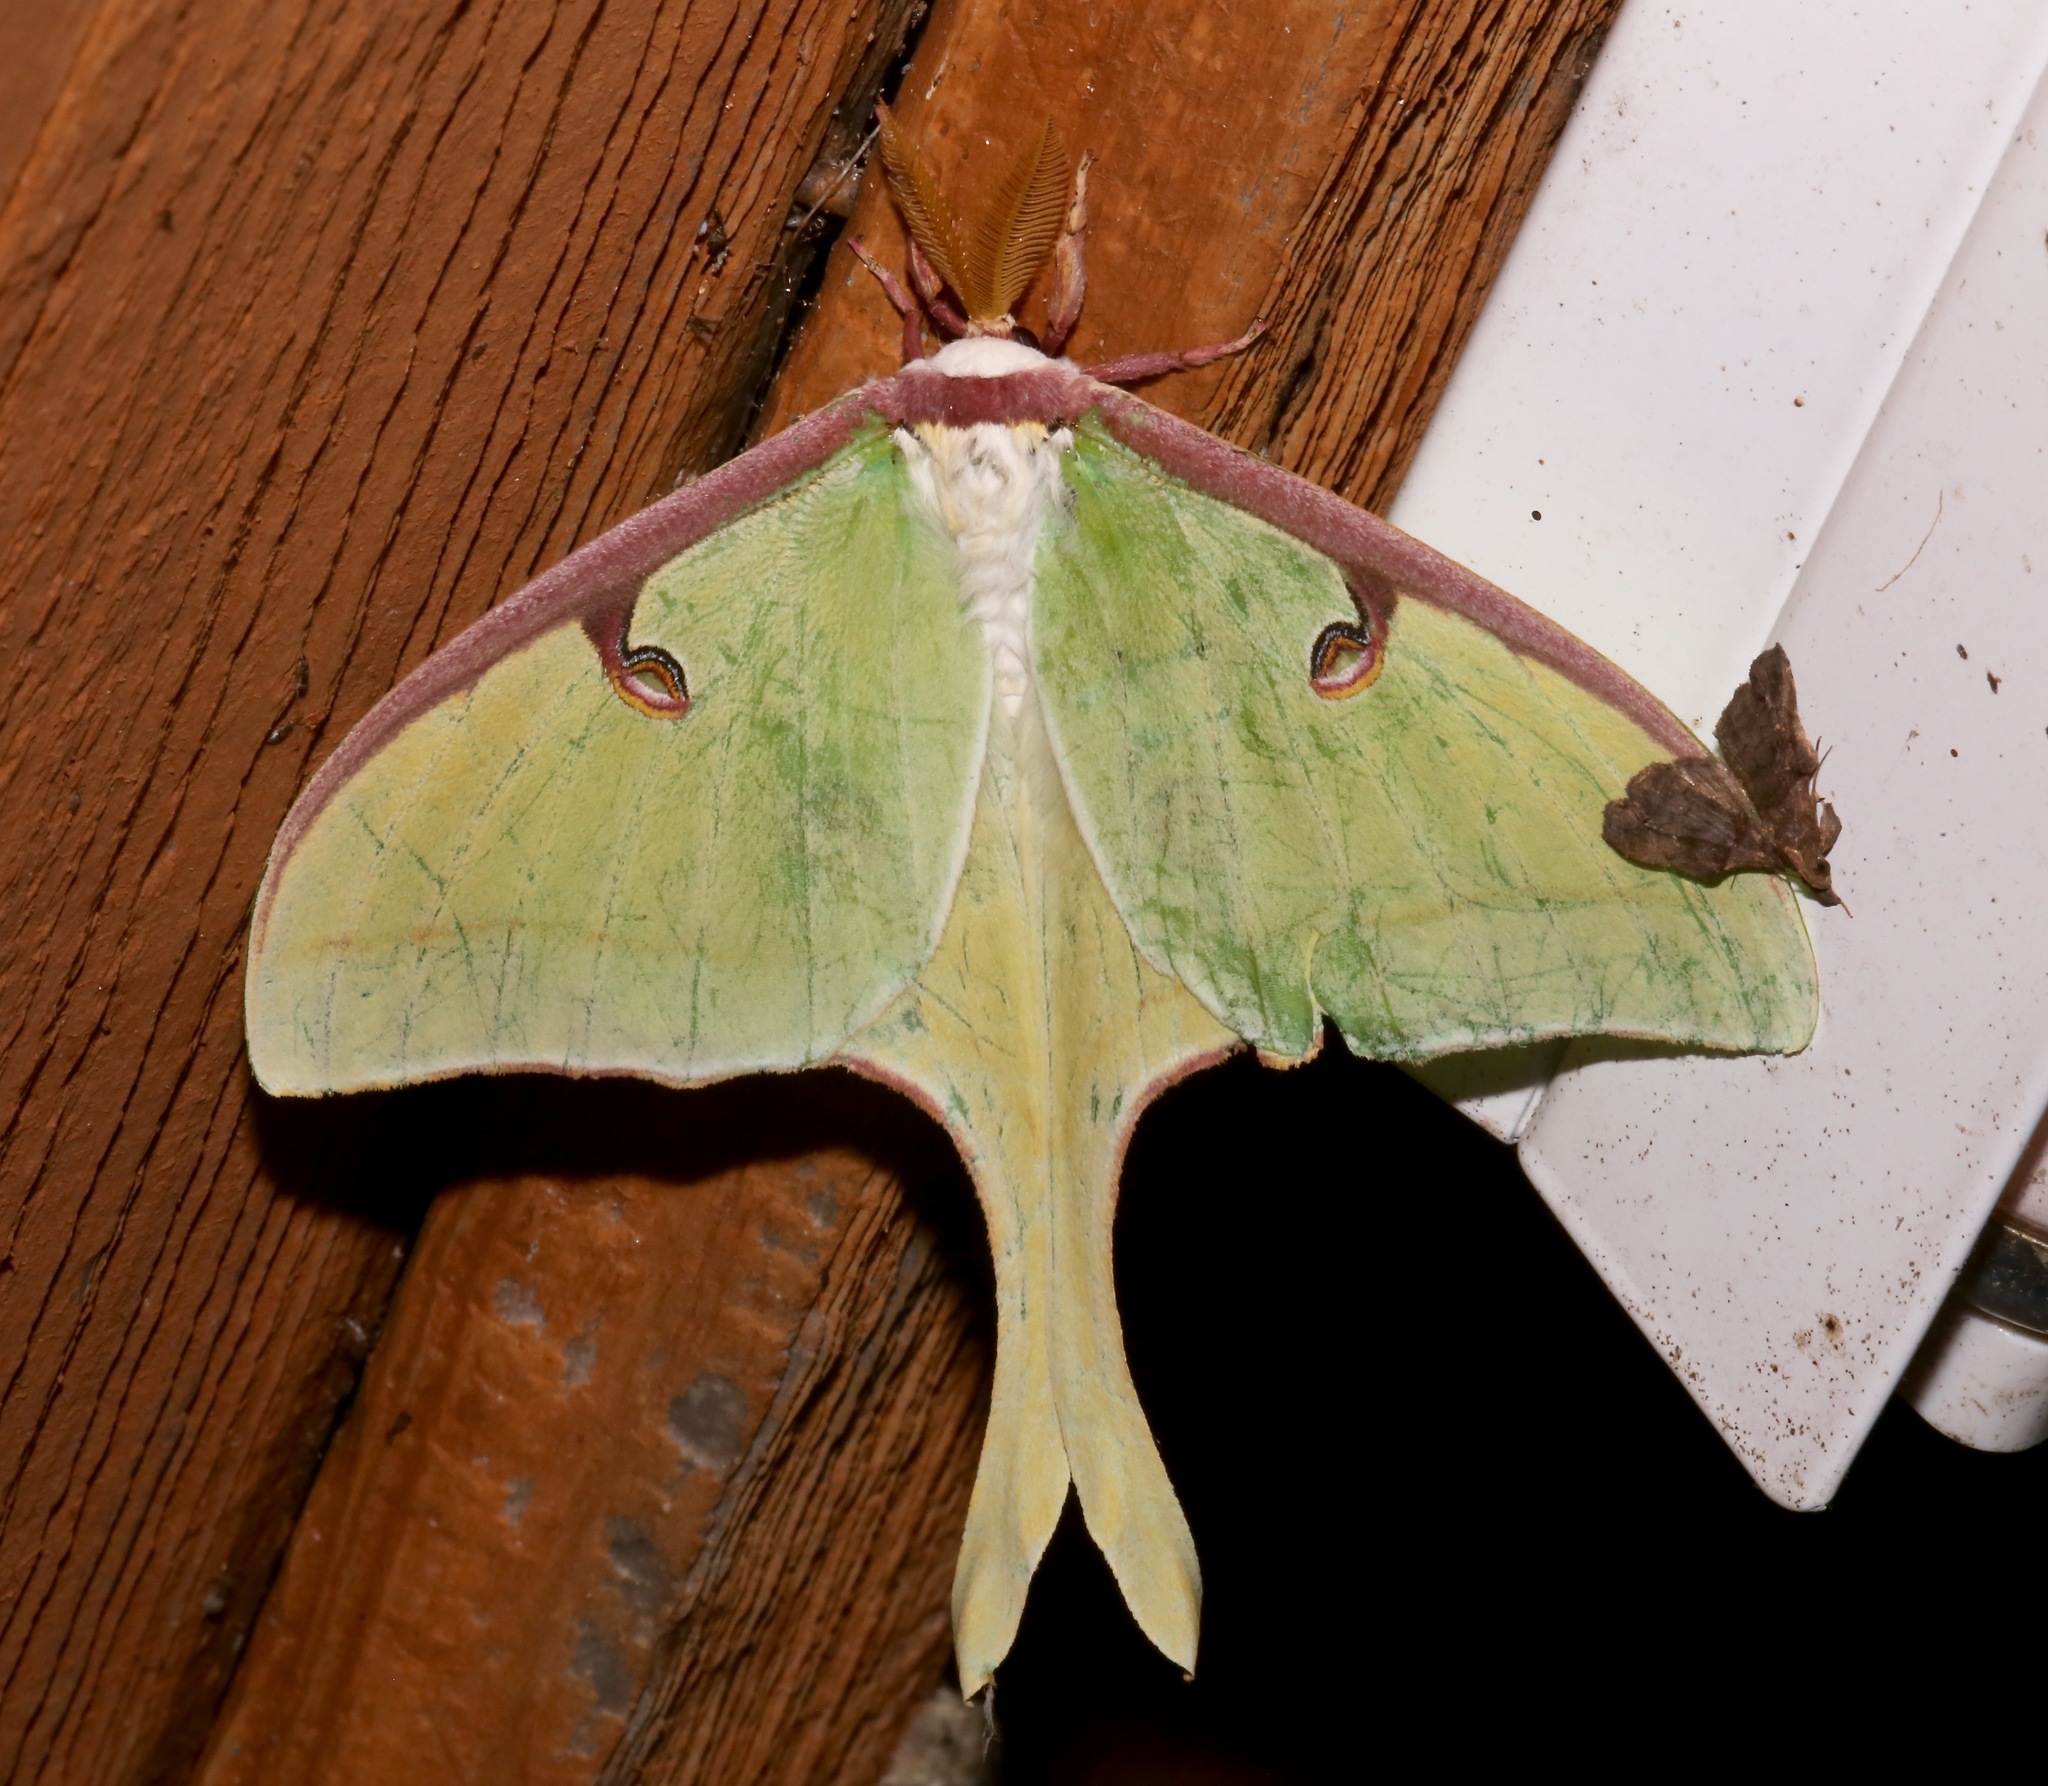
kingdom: Animalia
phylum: Arthropoda
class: Insecta
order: Lepidoptera
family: Saturniidae
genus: Actias
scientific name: Actias luna
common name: Luna moth
